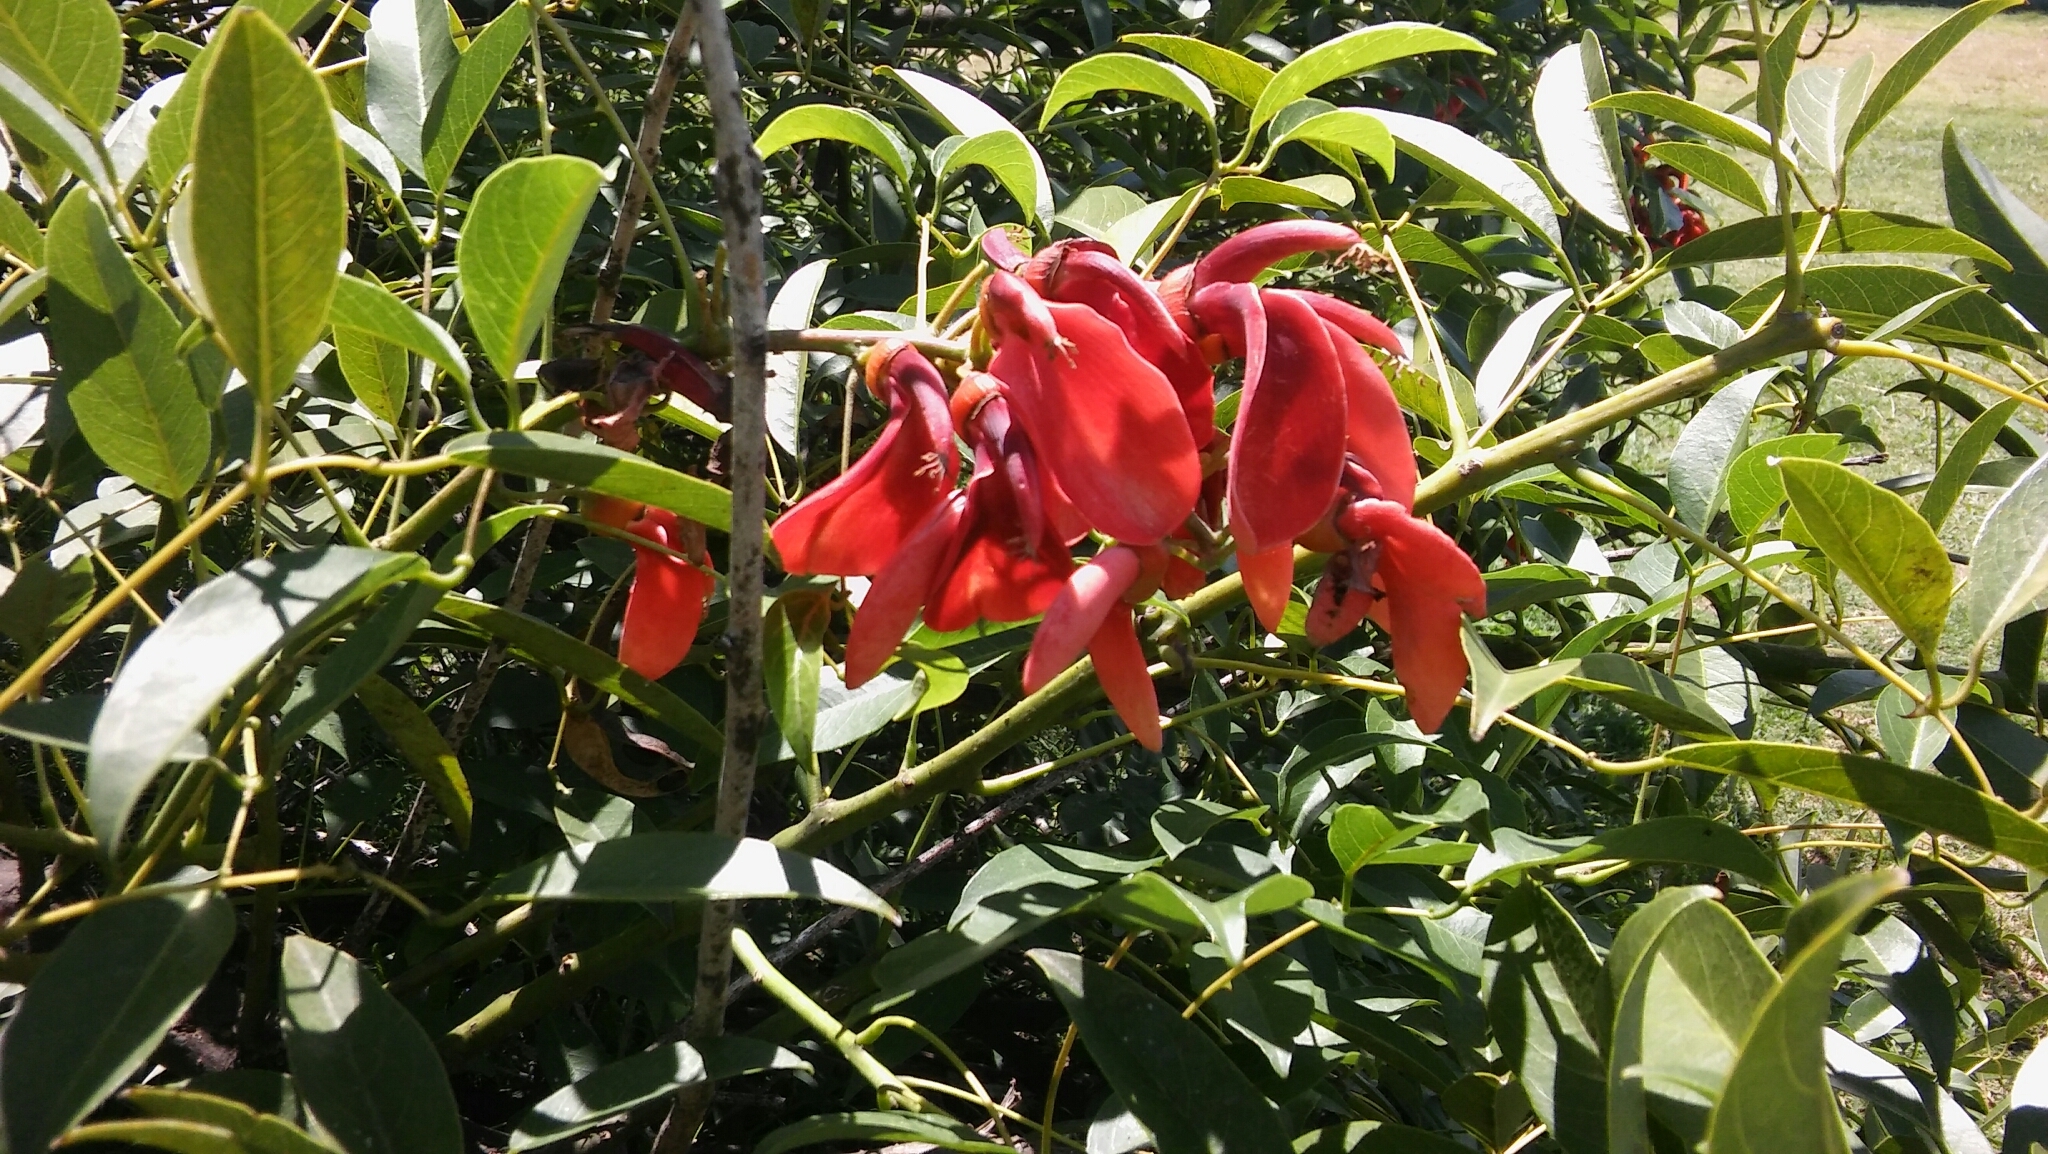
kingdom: Plantae
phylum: Tracheophyta
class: Magnoliopsida
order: Fabales
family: Fabaceae
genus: Erythrina
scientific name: Erythrina crista-galli
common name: Cockspur coral tree
